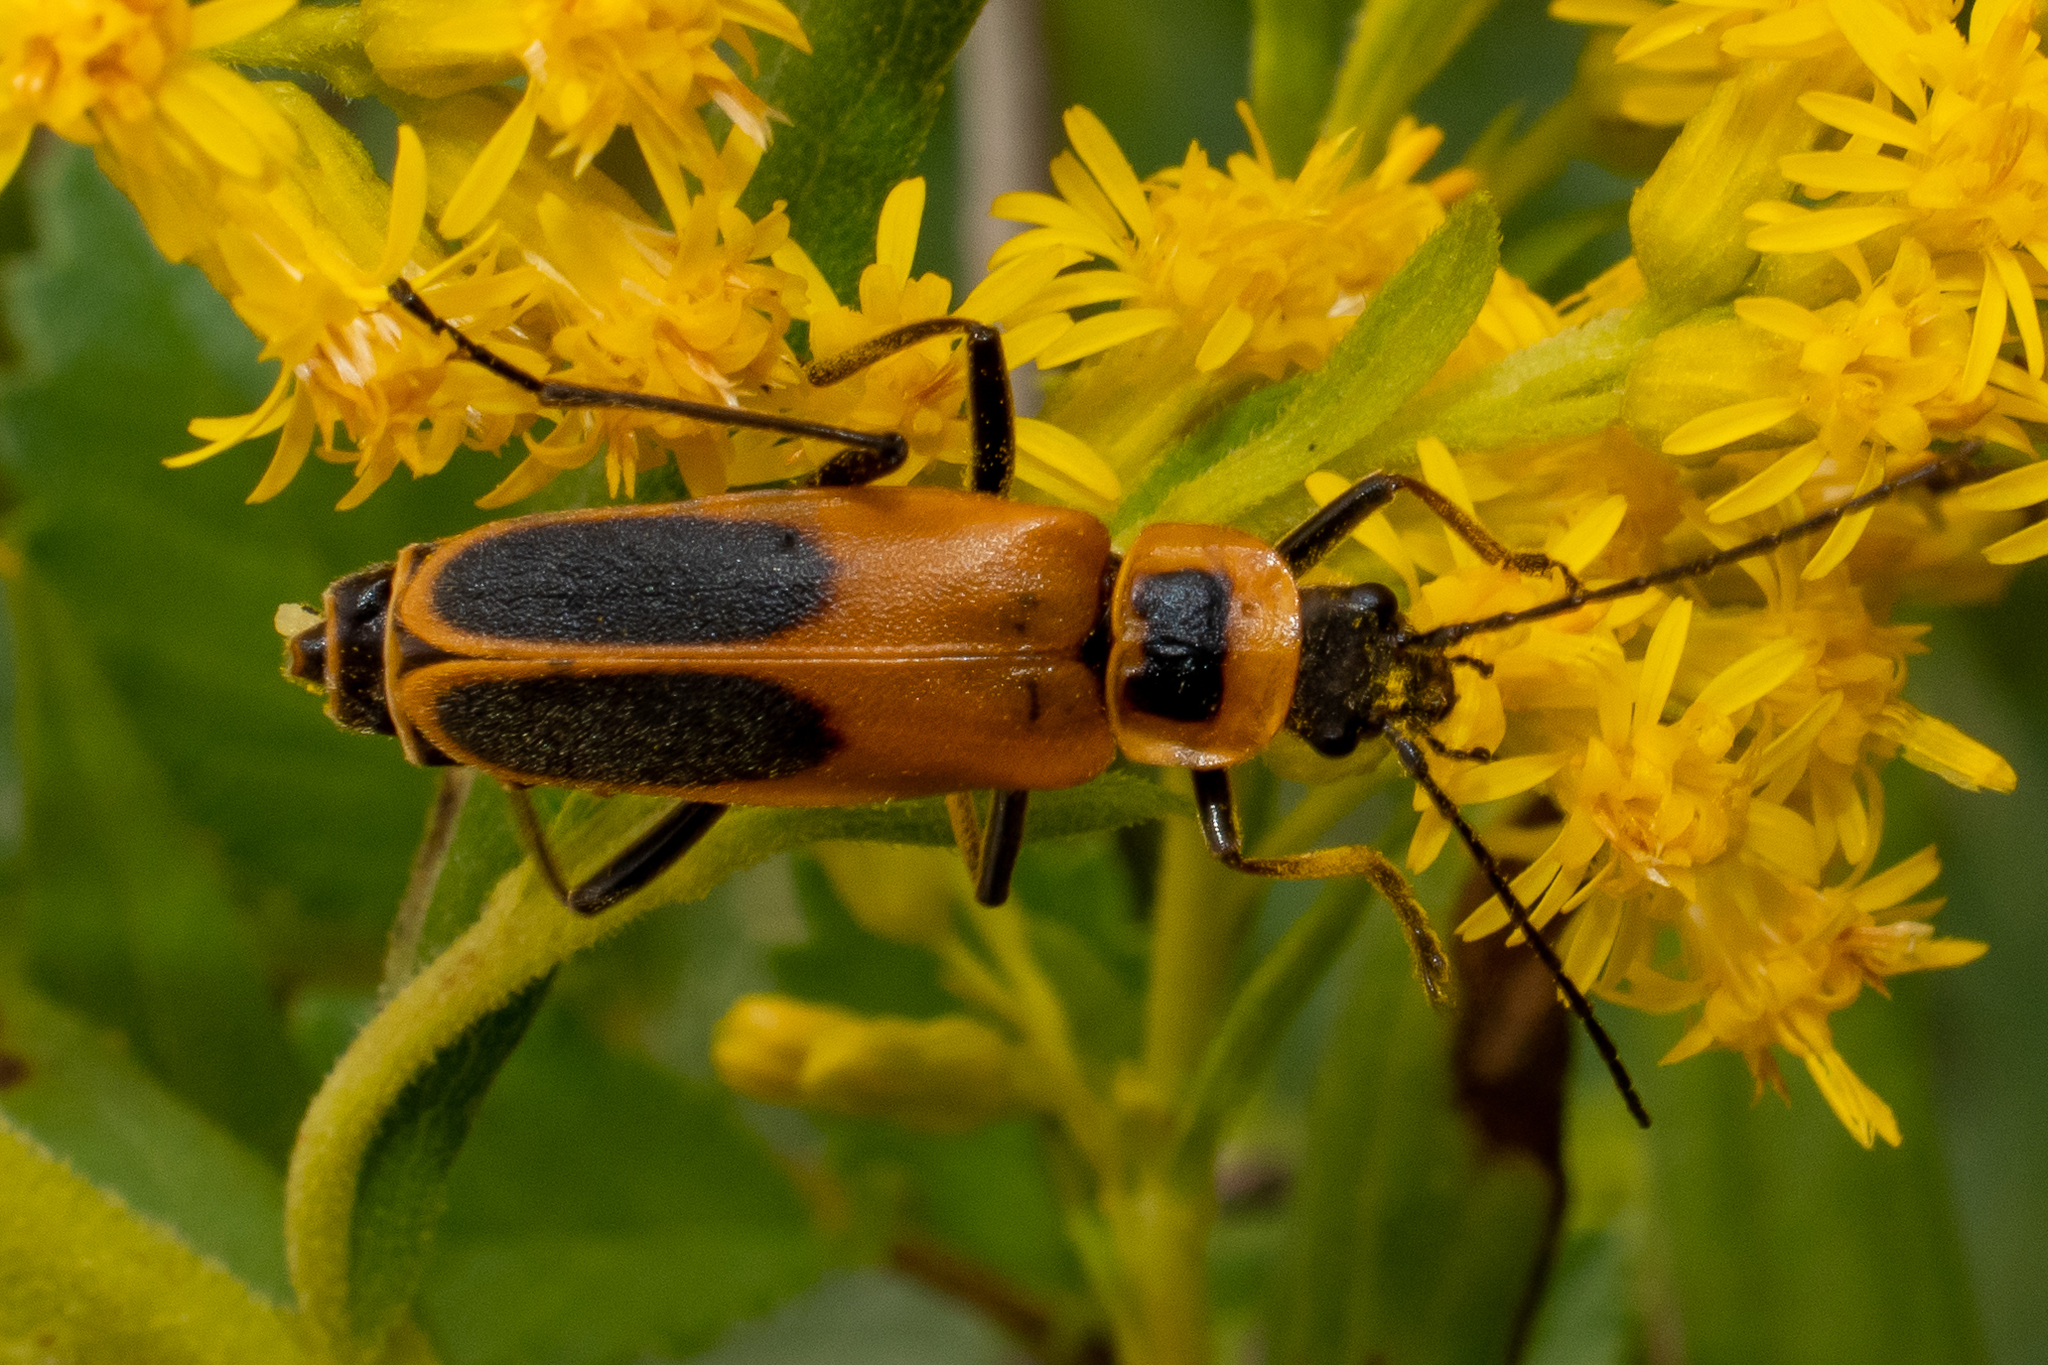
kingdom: Animalia
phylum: Arthropoda
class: Insecta
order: Coleoptera
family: Cantharidae
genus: Chauliognathus
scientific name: Chauliognathus pensylvanicus
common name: Goldenrod soldier beetle
